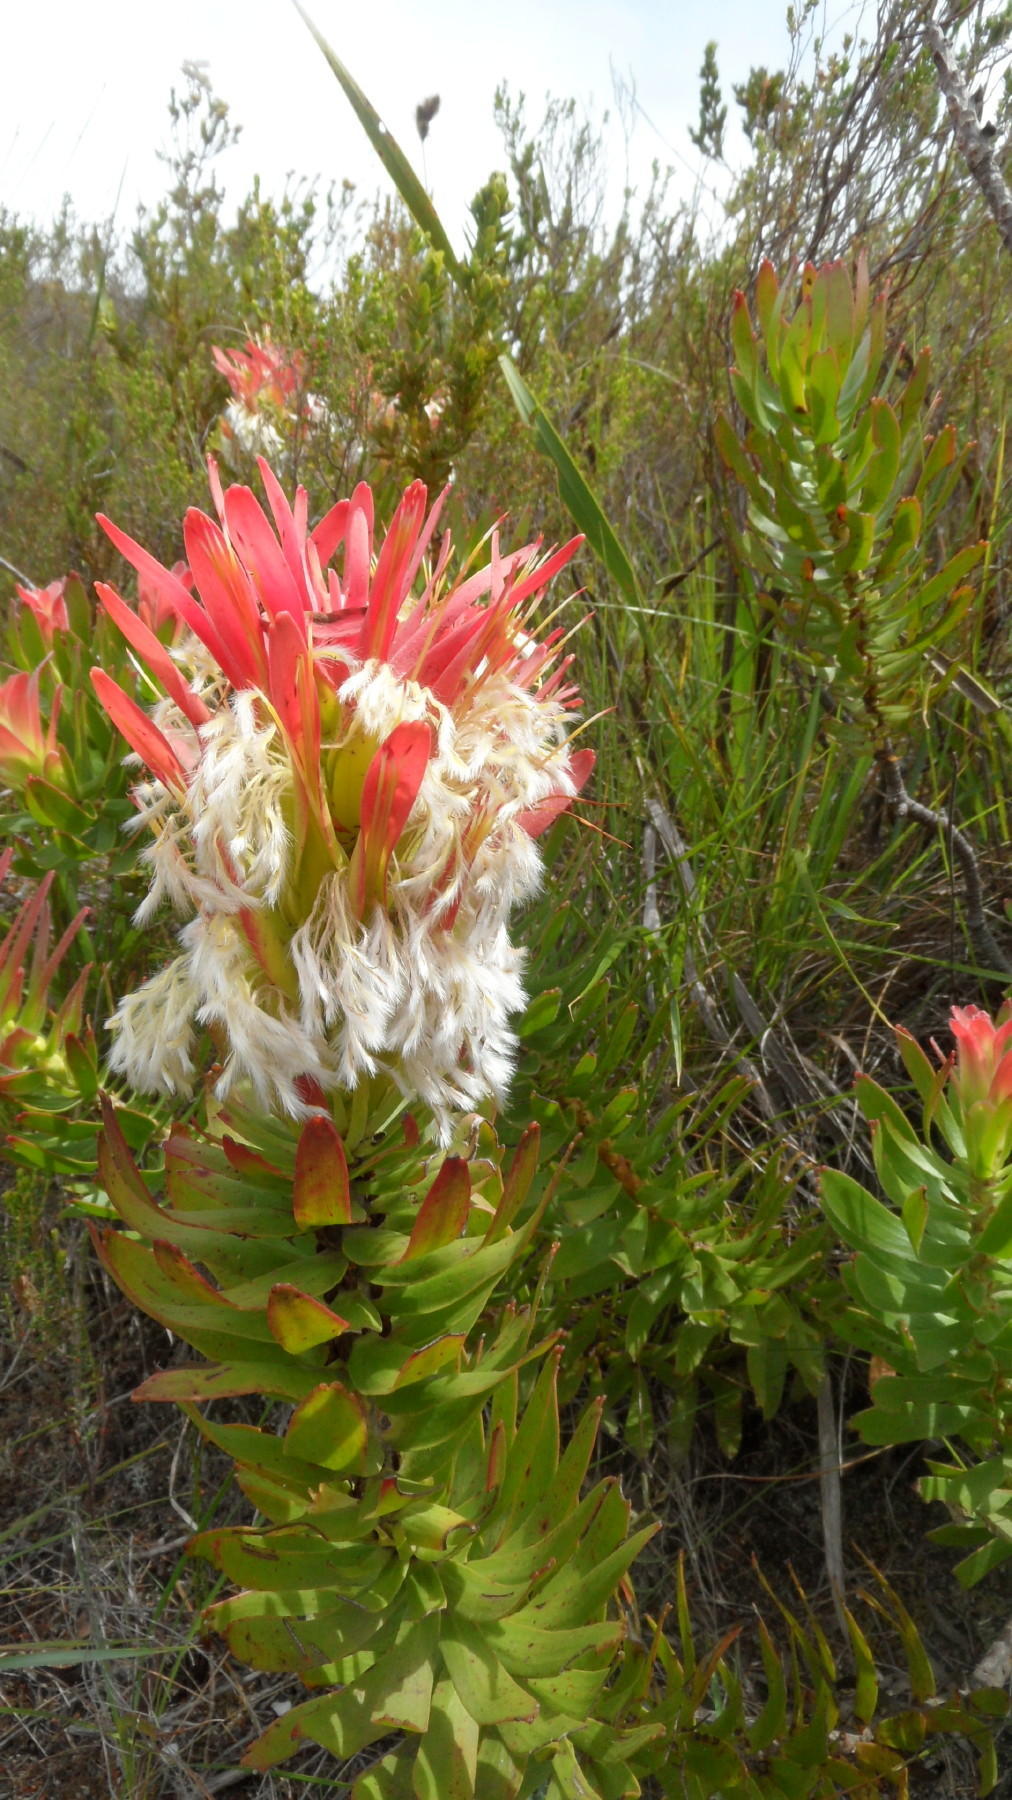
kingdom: Plantae
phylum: Tracheophyta
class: Magnoliopsida
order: Proteales
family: Proteaceae
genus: Mimetes
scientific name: Mimetes cucullatus
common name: Common pagoda
